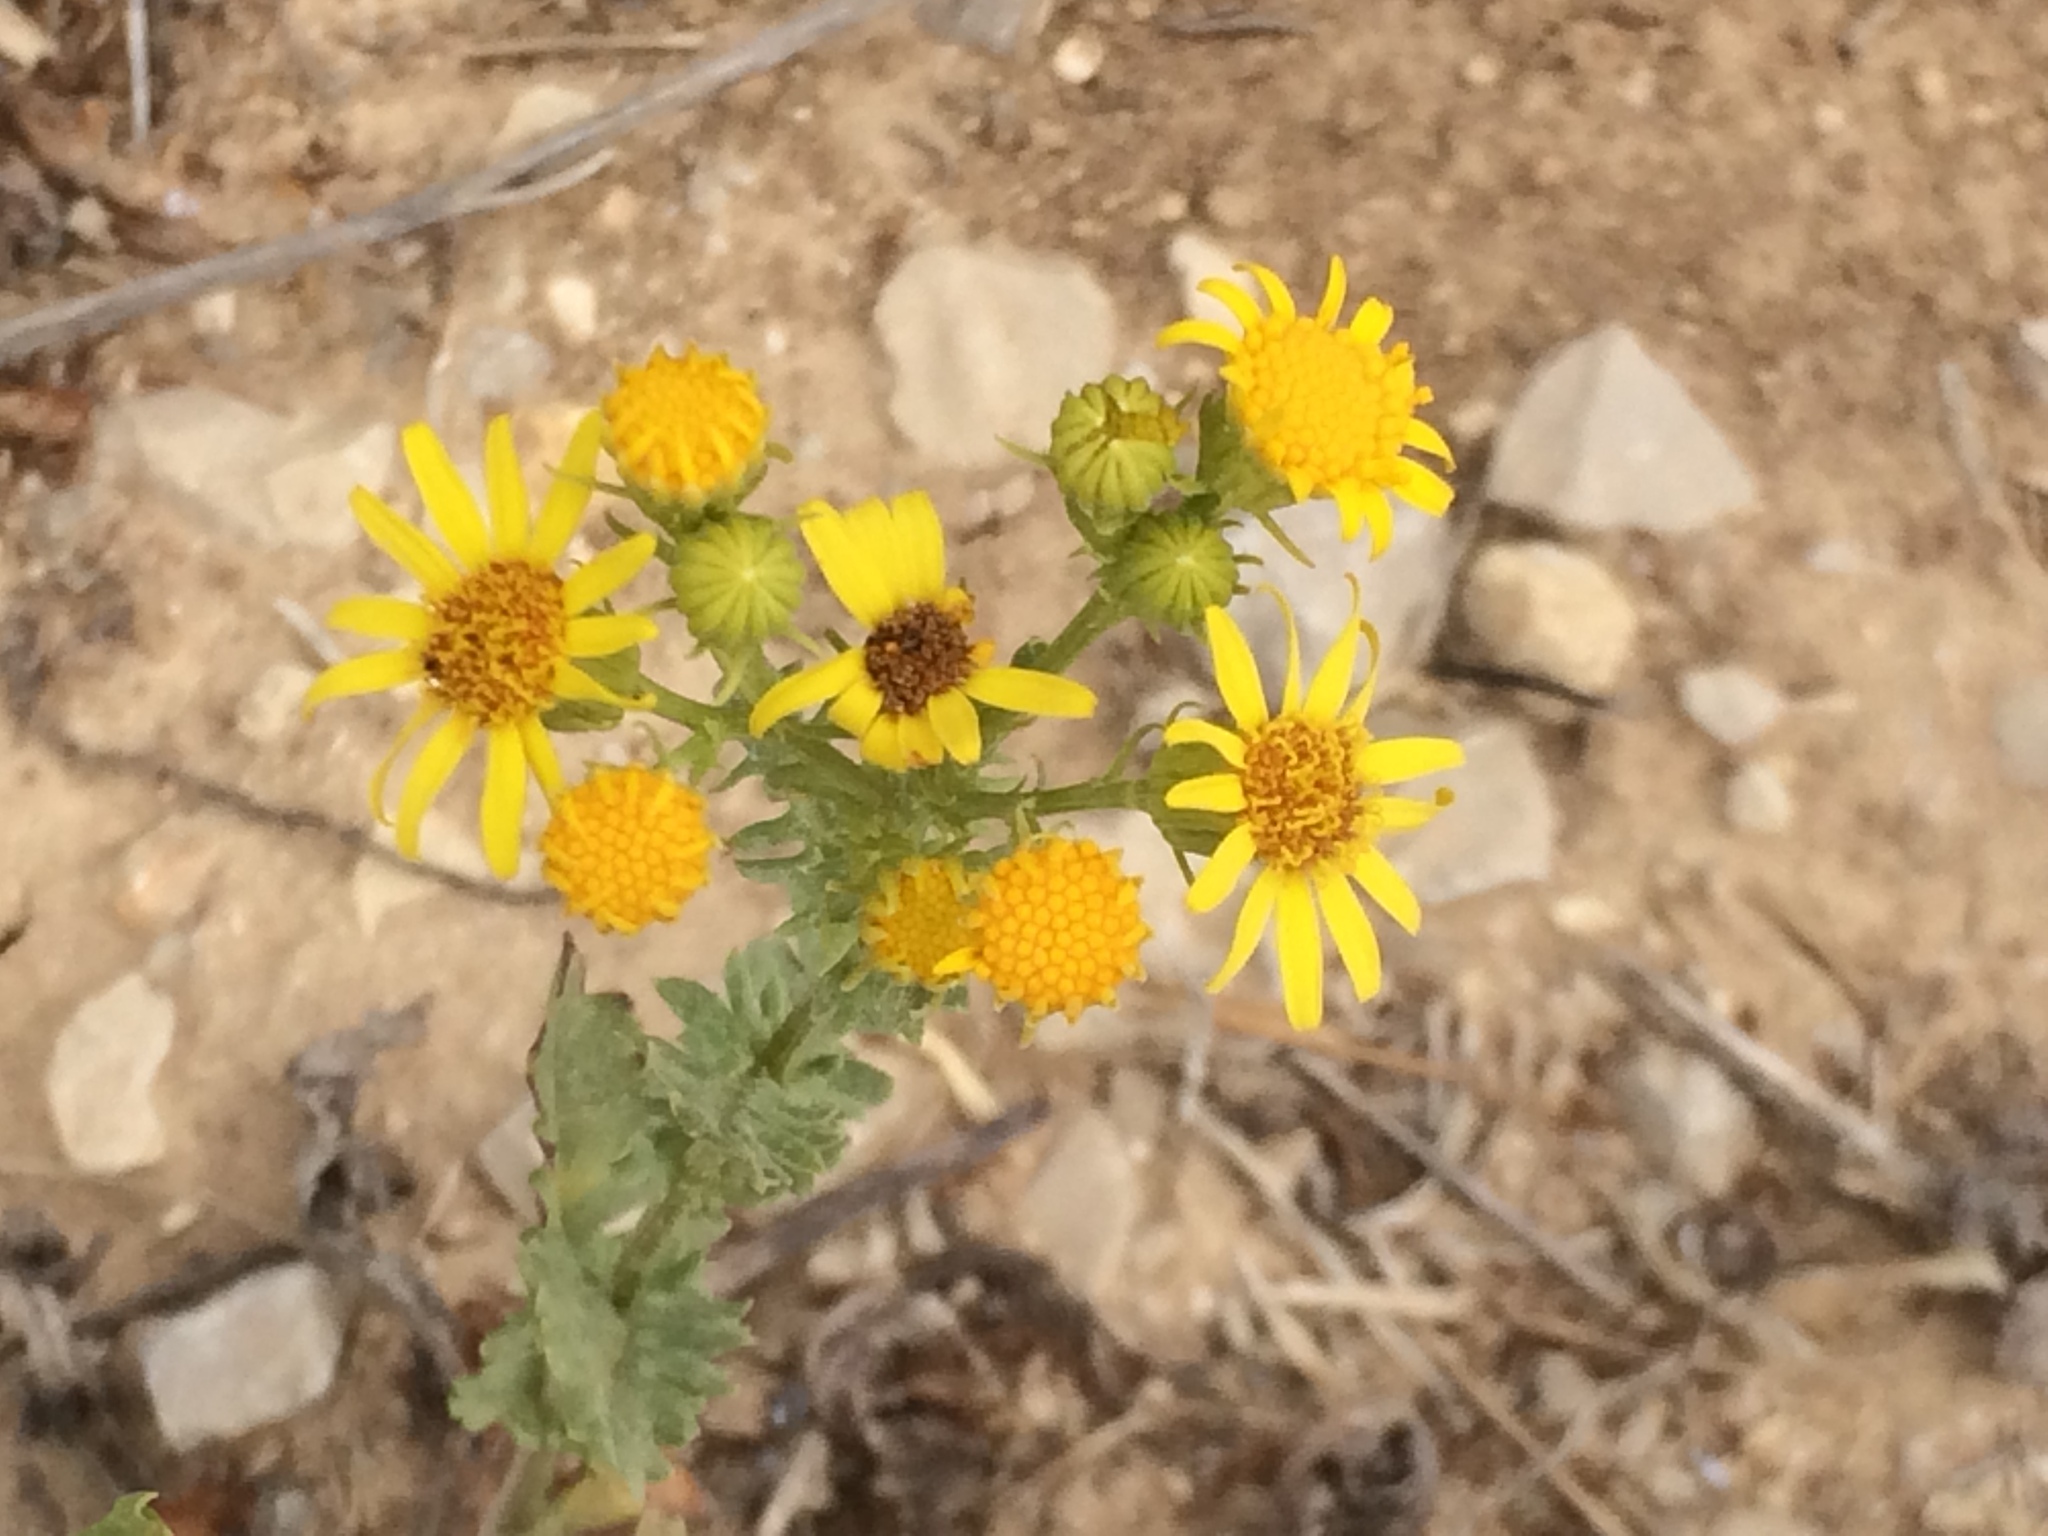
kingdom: Plantae
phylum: Tracheophyta
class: Magnoliopsida
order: Asterales
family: Asteraceae
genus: Jacobaea
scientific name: Jacobaea vulgaris
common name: Stinking willie
